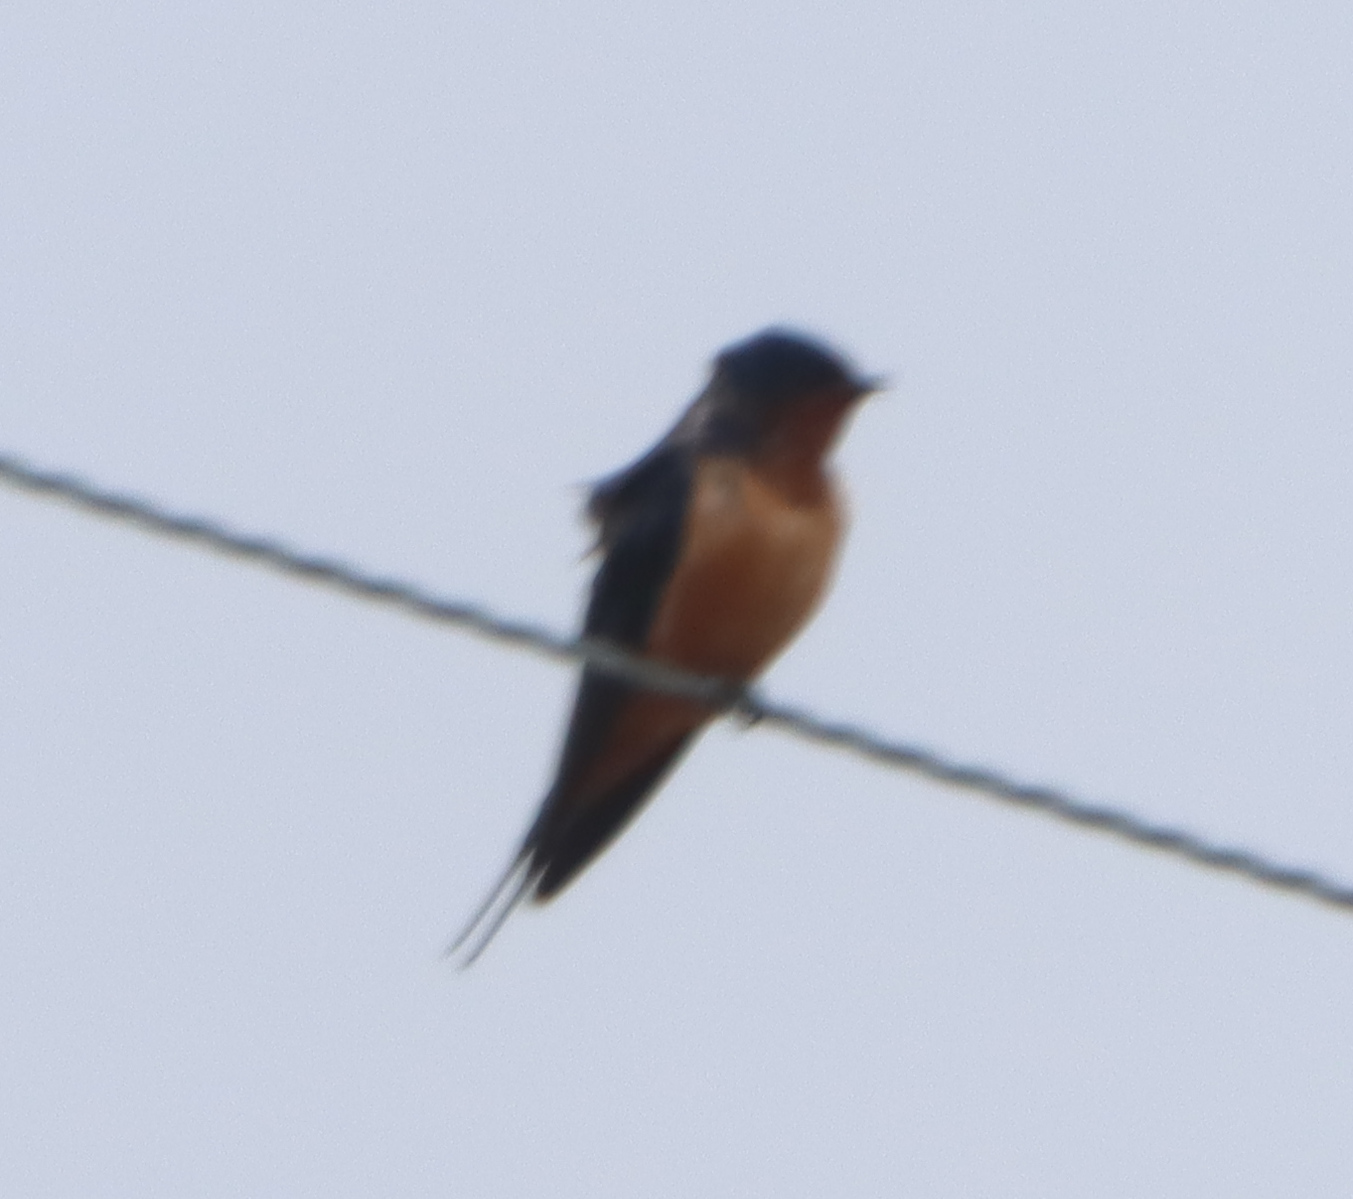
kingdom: Animalia
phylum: Chordata
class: Aves
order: Passeriformes
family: Hirundinidae
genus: Hirundo
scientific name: Hirundo rustica
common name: Barn swallow
